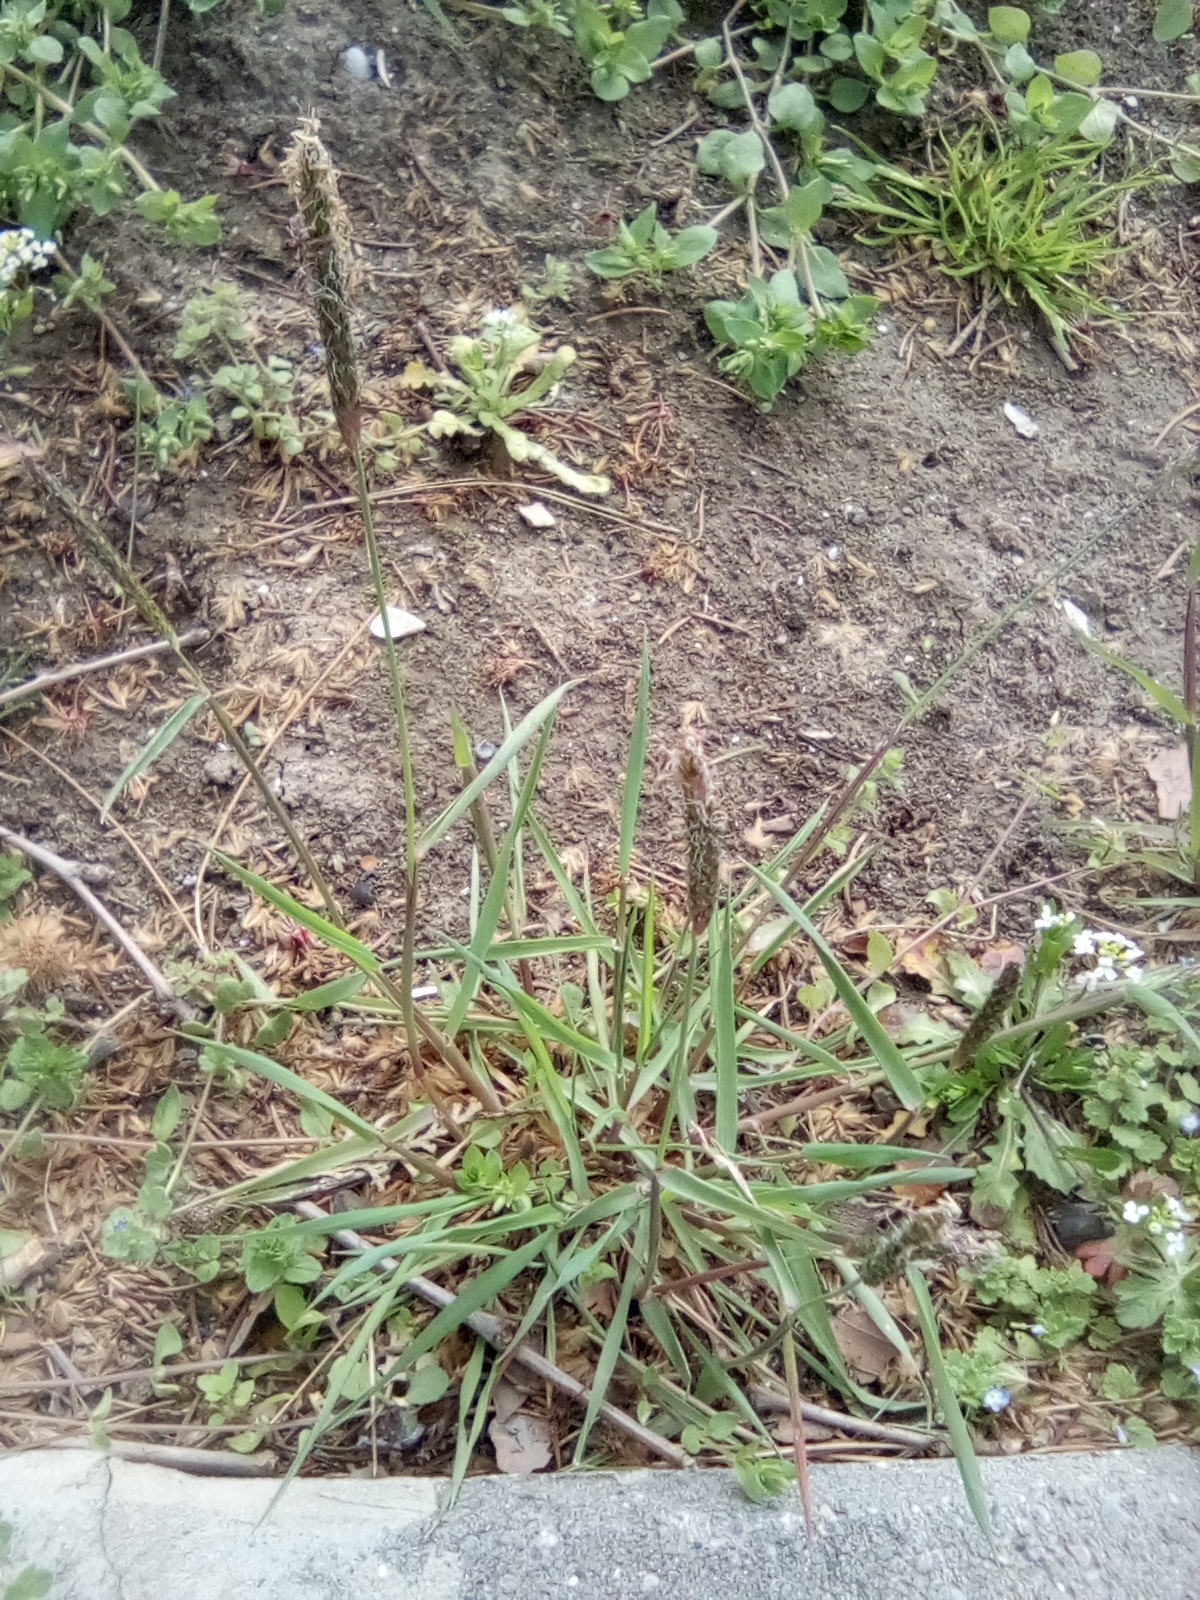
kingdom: Plantae
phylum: Tracheophyta
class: Liliopsida
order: Poales
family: Poaceae
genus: Alopecurus
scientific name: Alopecurus myosuroides
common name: Black-grass
